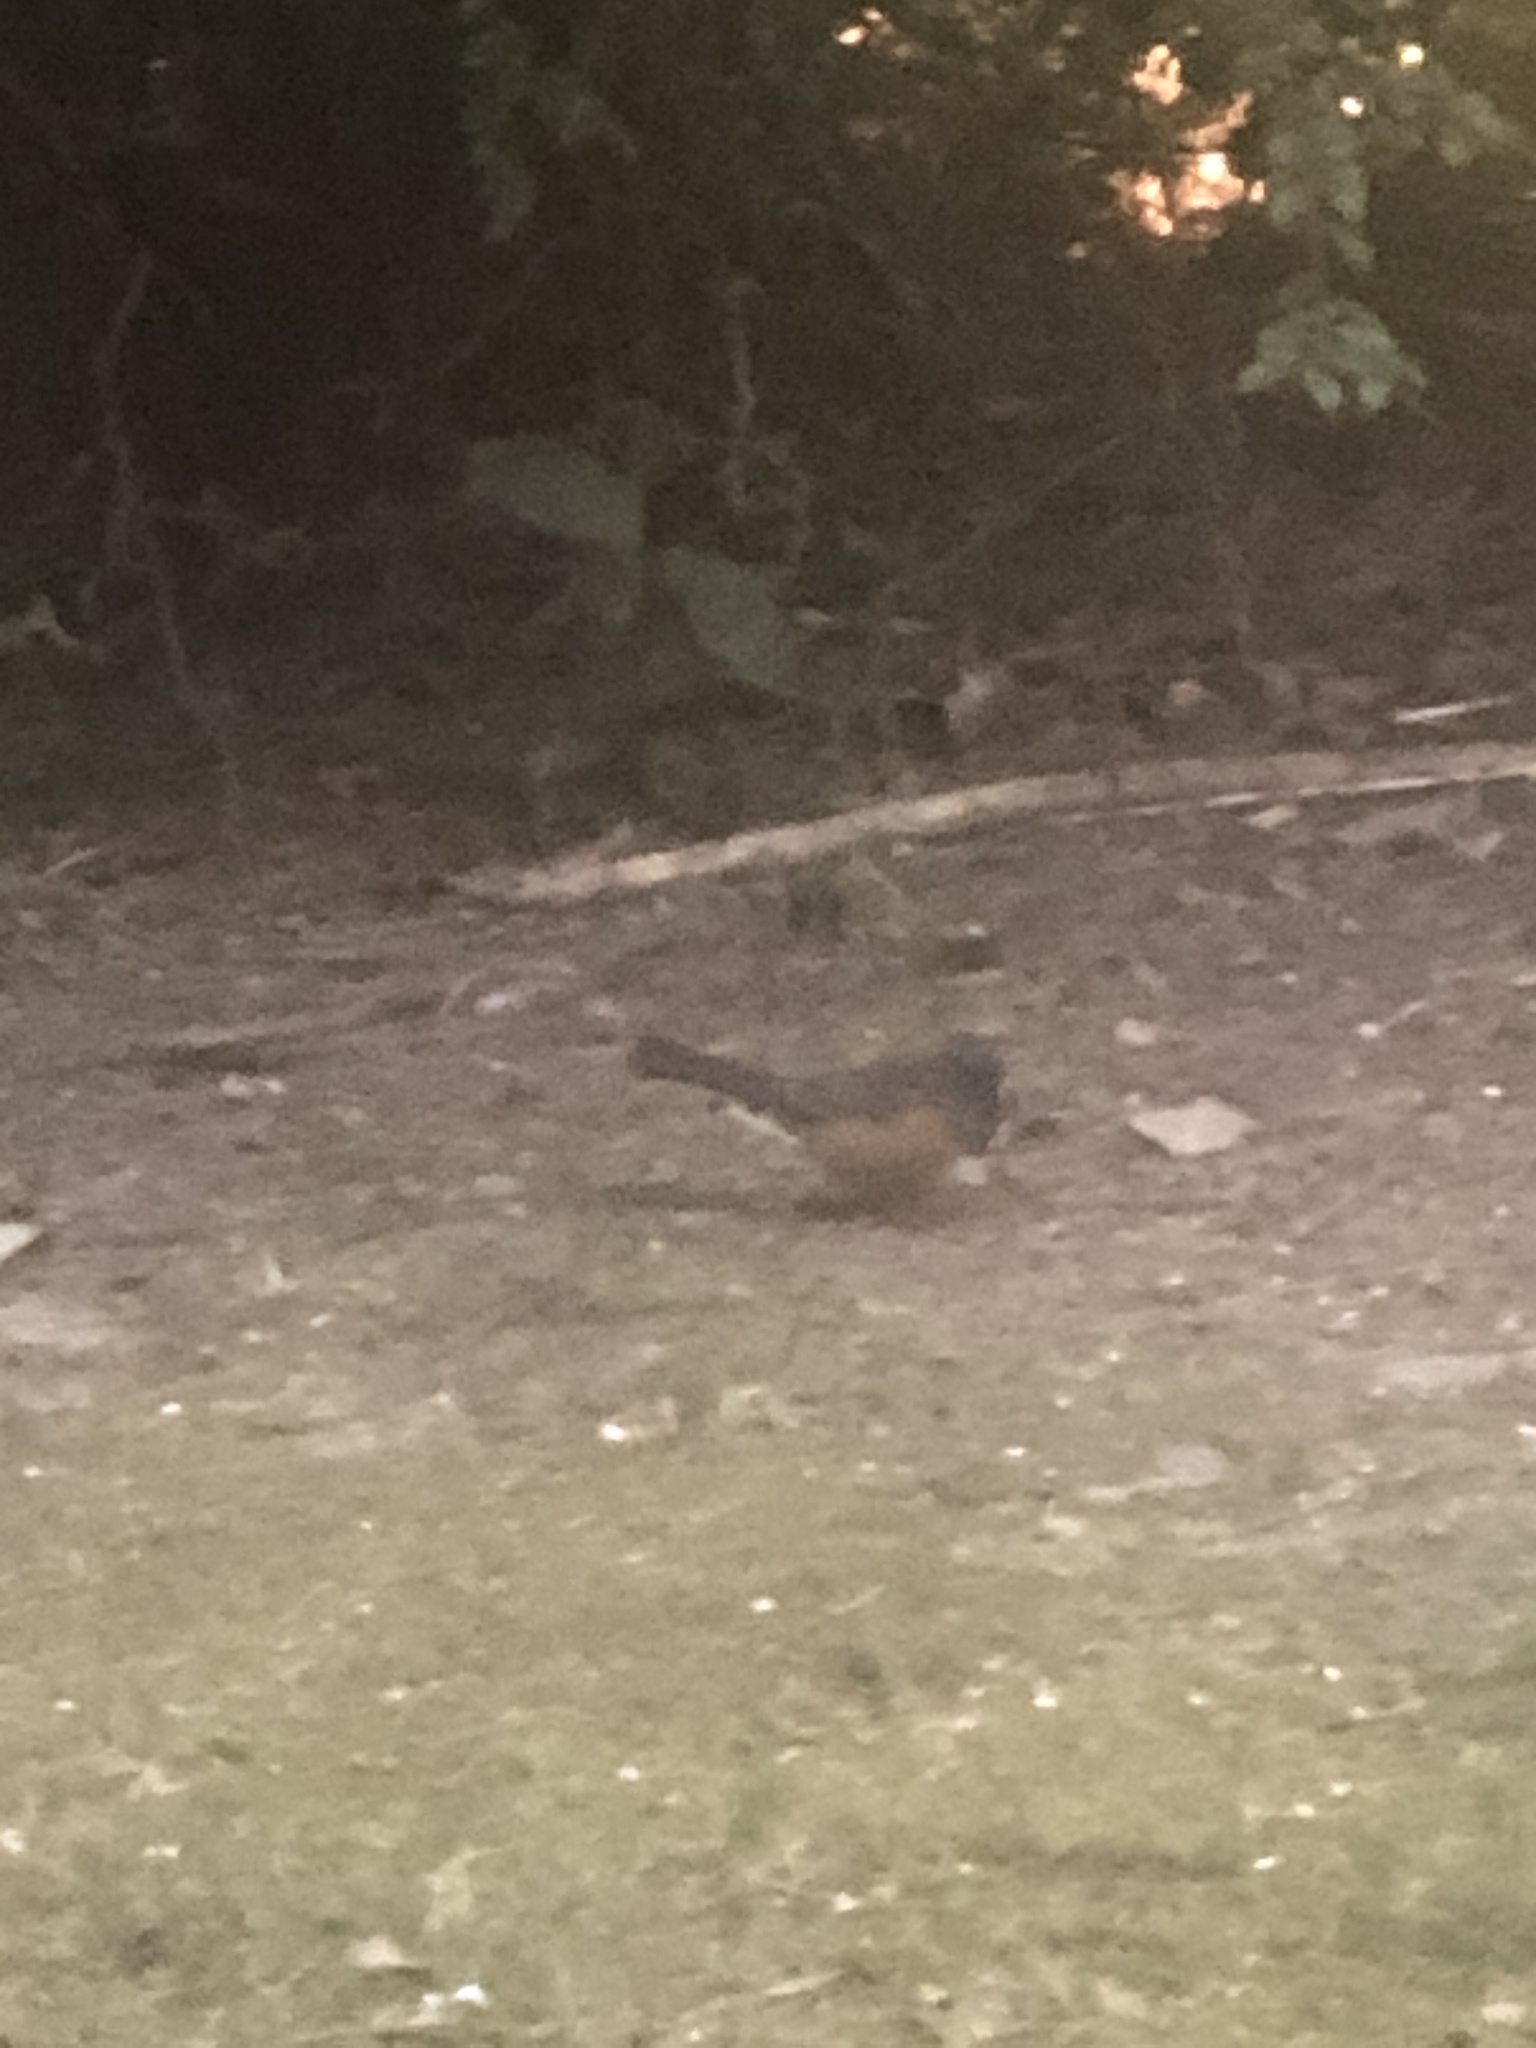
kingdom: Animalia
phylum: Chordata
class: Aves
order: Passeriformes
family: Passerellidae
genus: Pipilo
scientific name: Pipilo maculatus
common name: Spotted towhee
